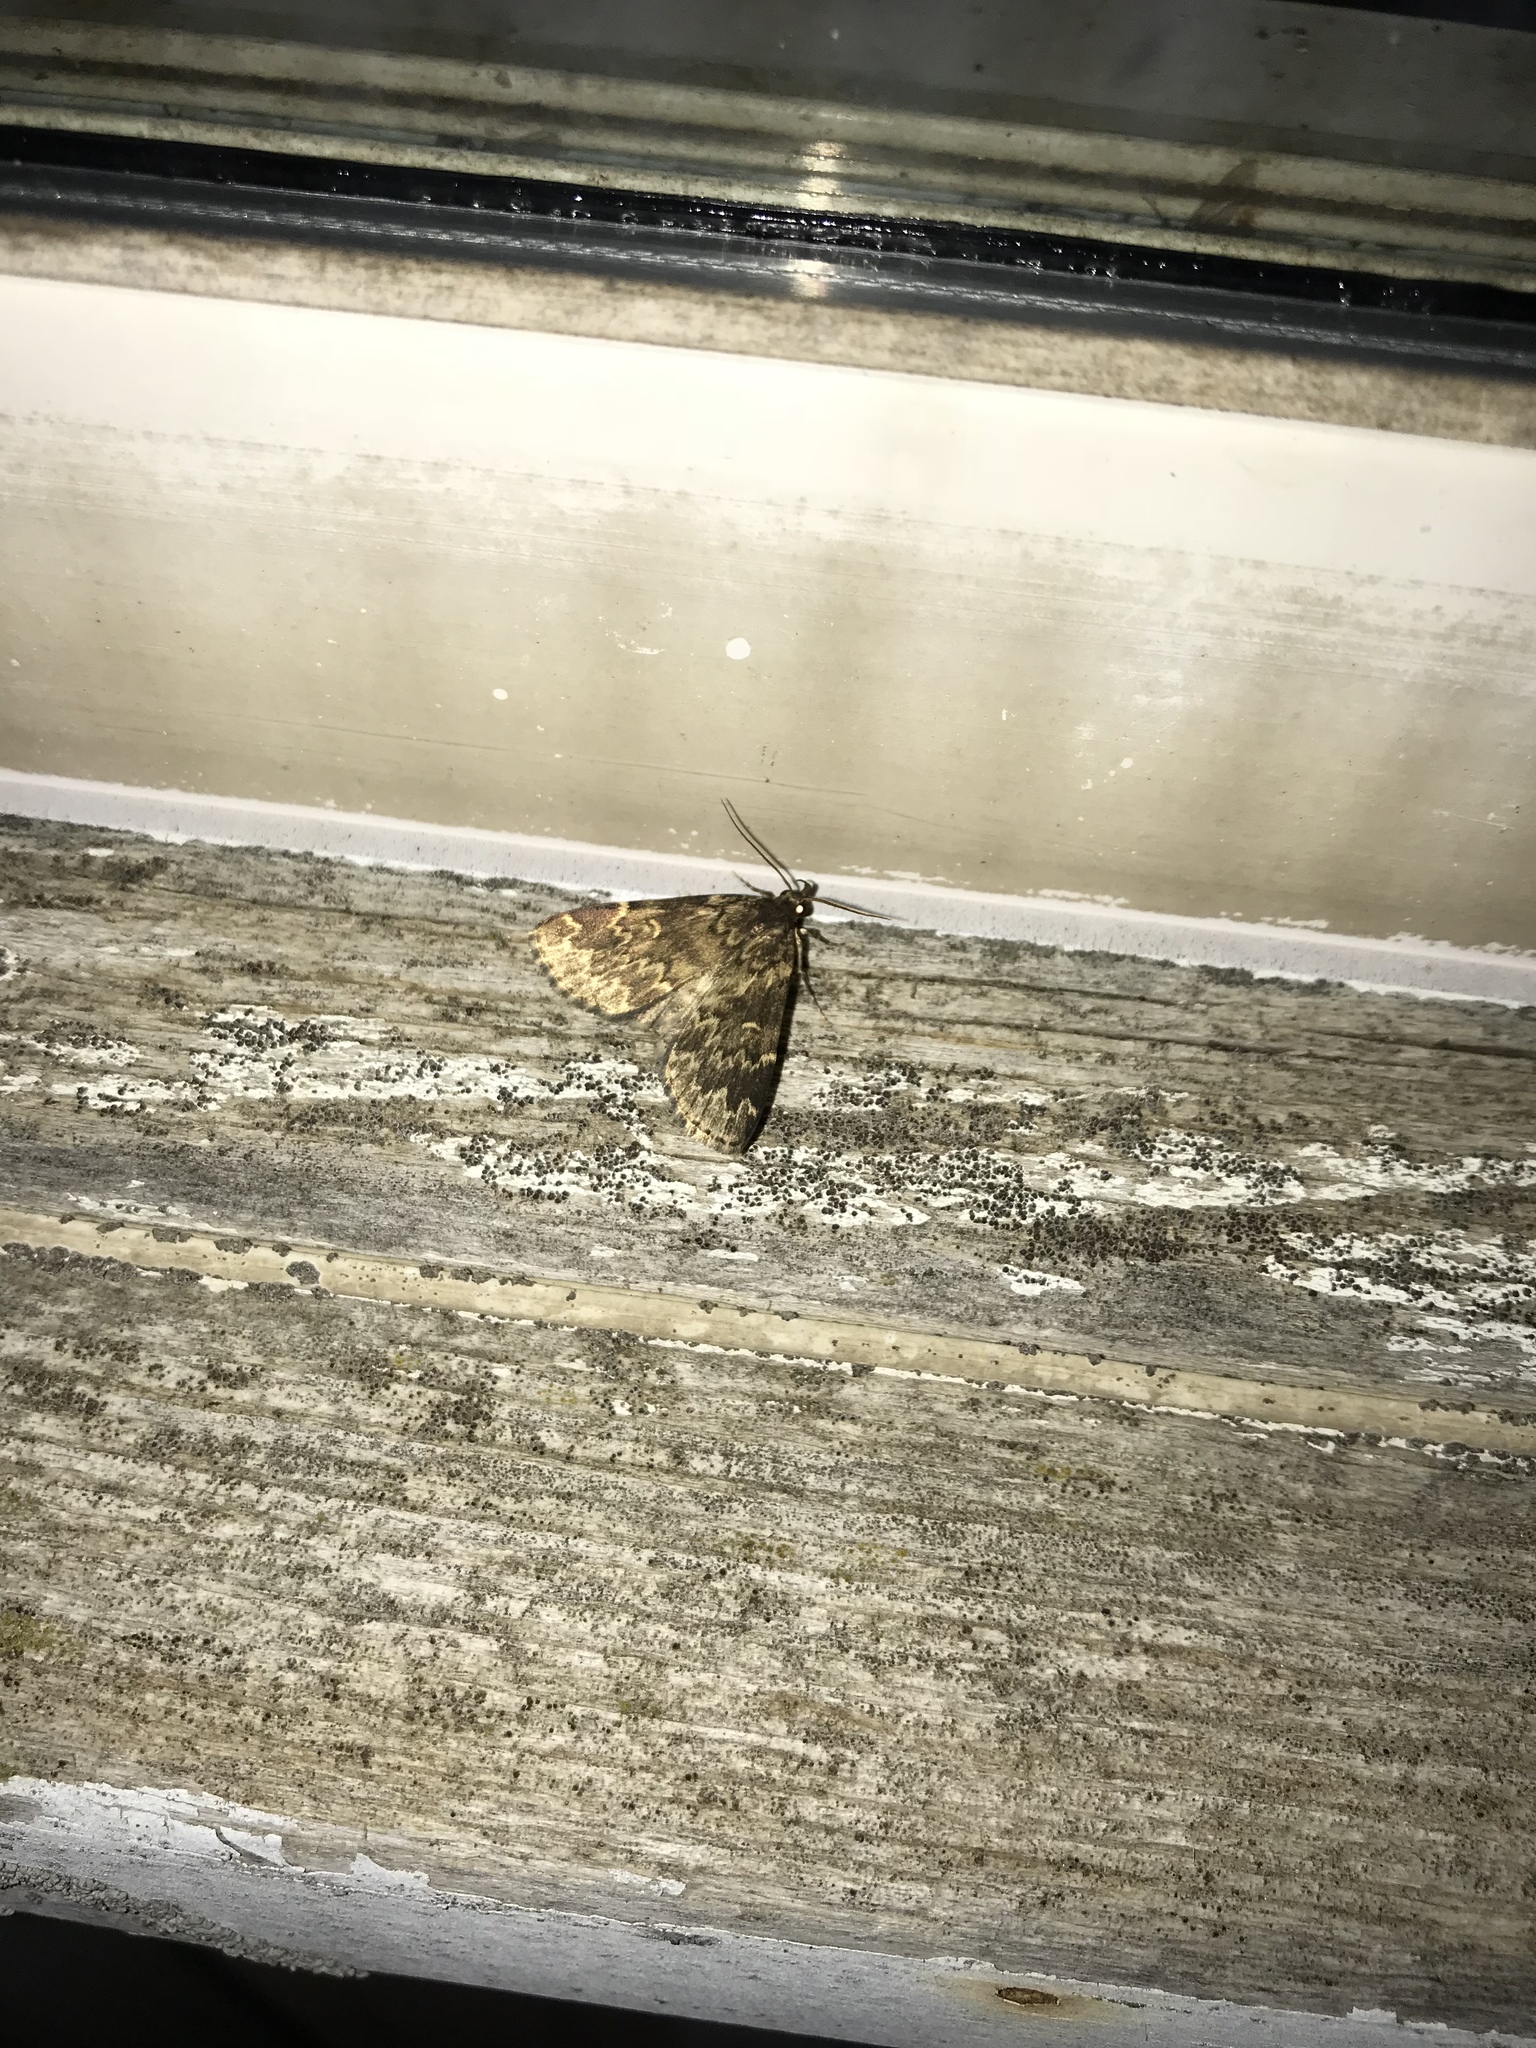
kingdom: Animalia
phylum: Arthropoda
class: Insecta
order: Lepidoptera
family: Erebidae
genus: Idia
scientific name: Idia lubricalis
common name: Twin-striped tabby
